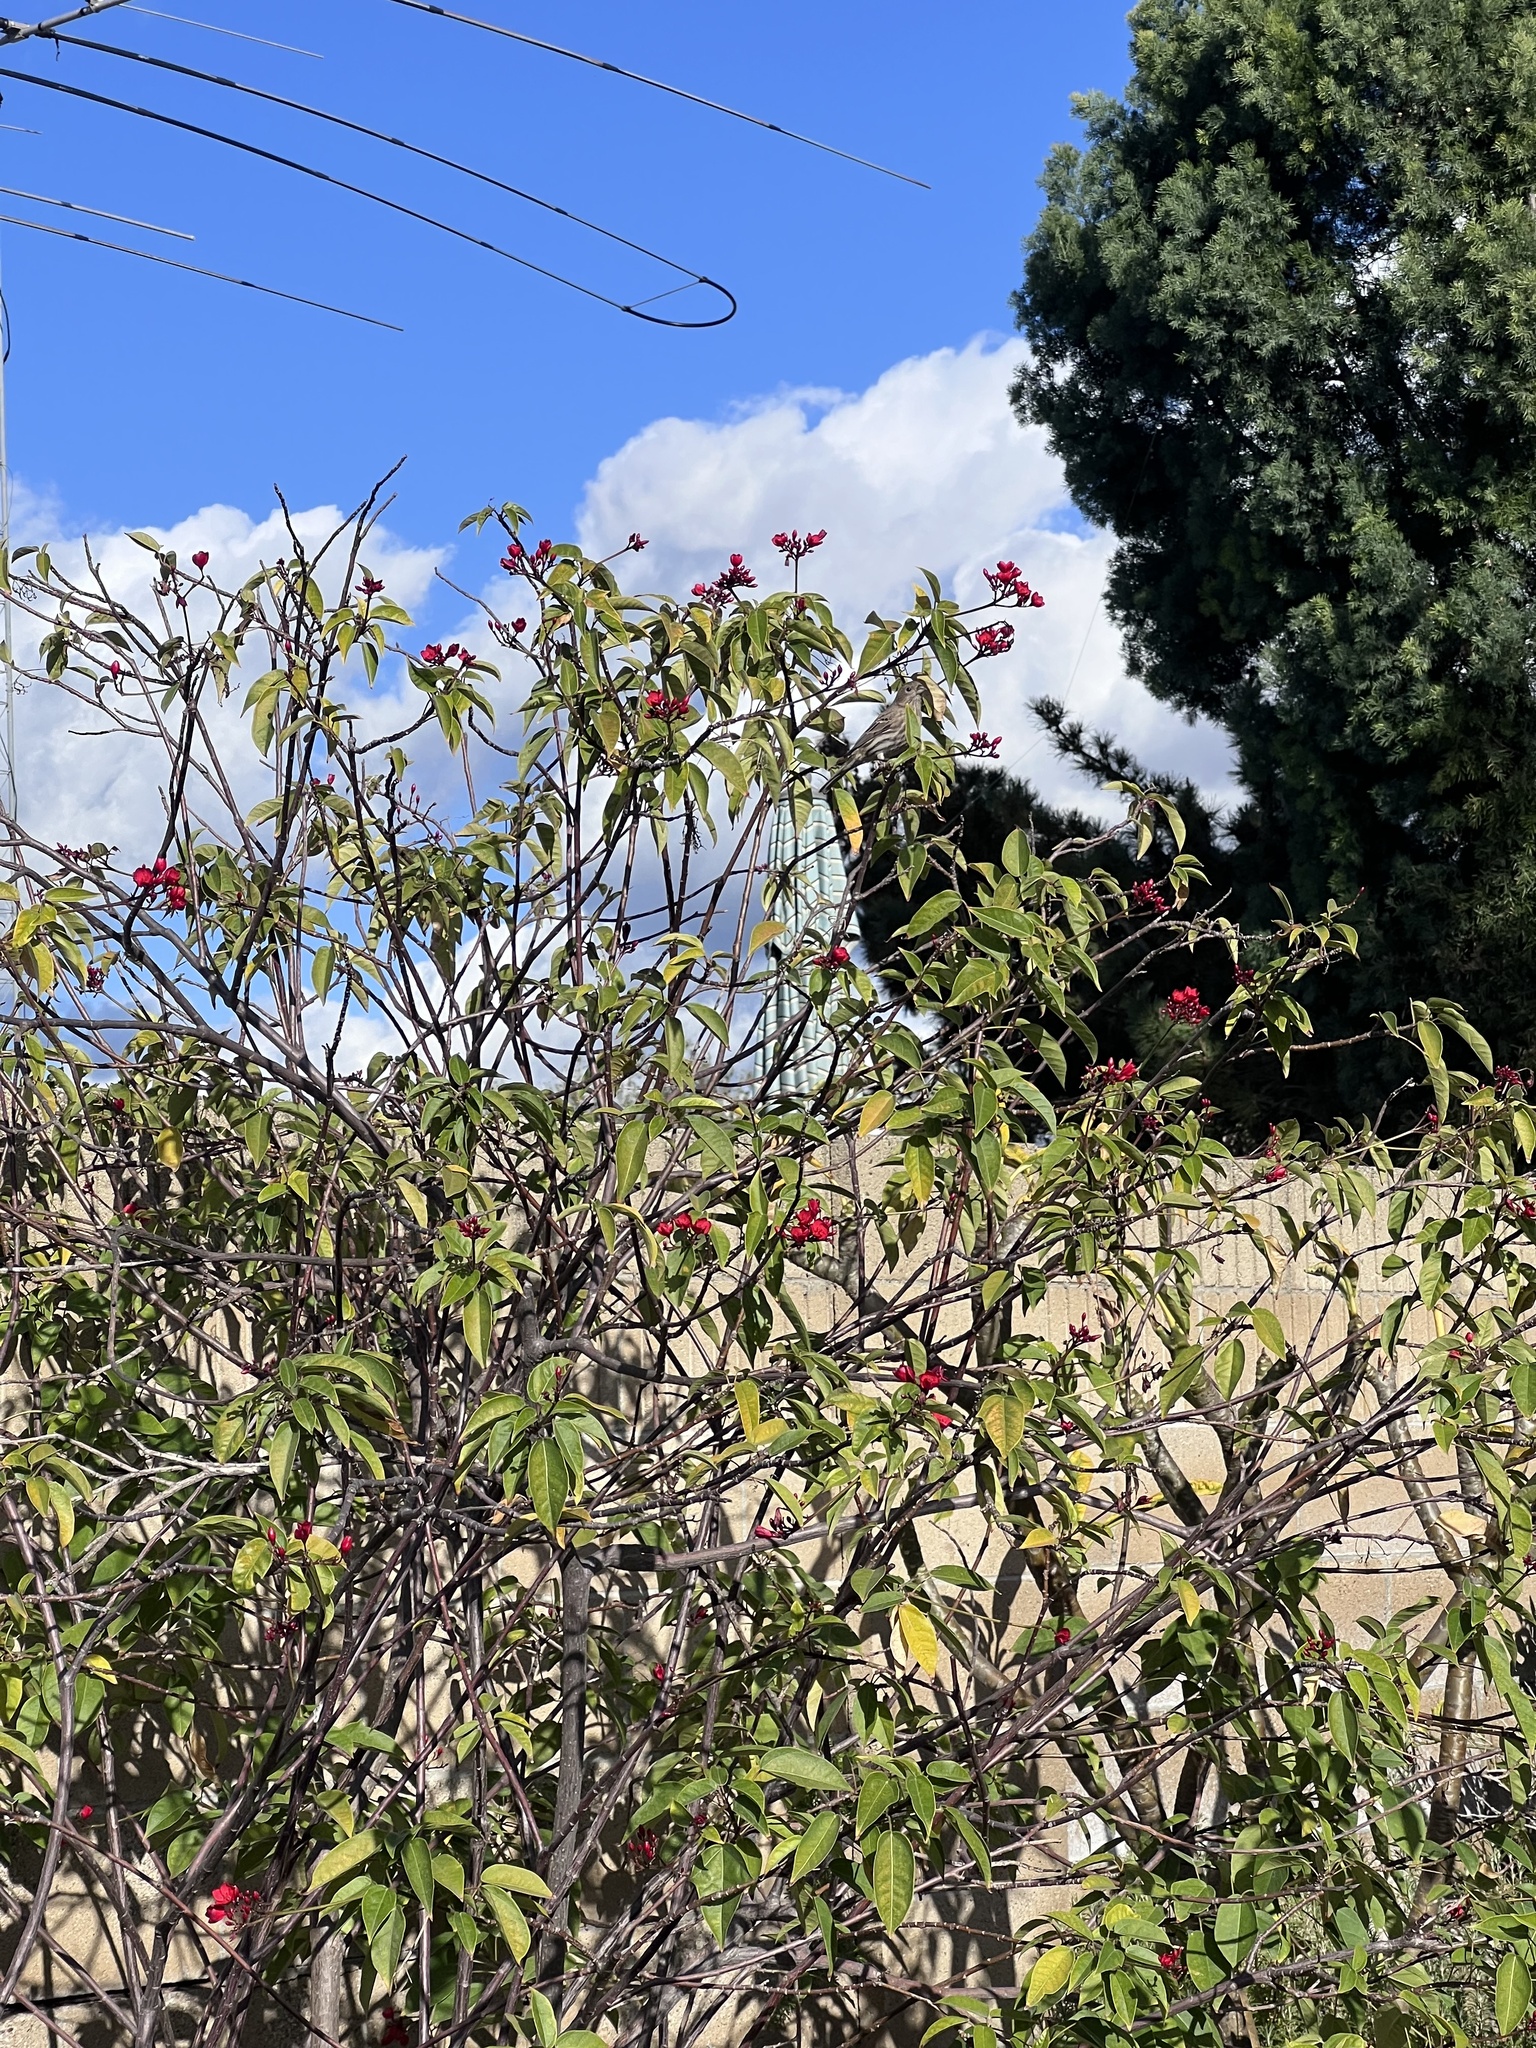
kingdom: Animalia
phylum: Chordata
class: Aves
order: Passeriformes
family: Fringillidae
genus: Haemorhous
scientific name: Haemorhous mexicanus
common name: House finch
